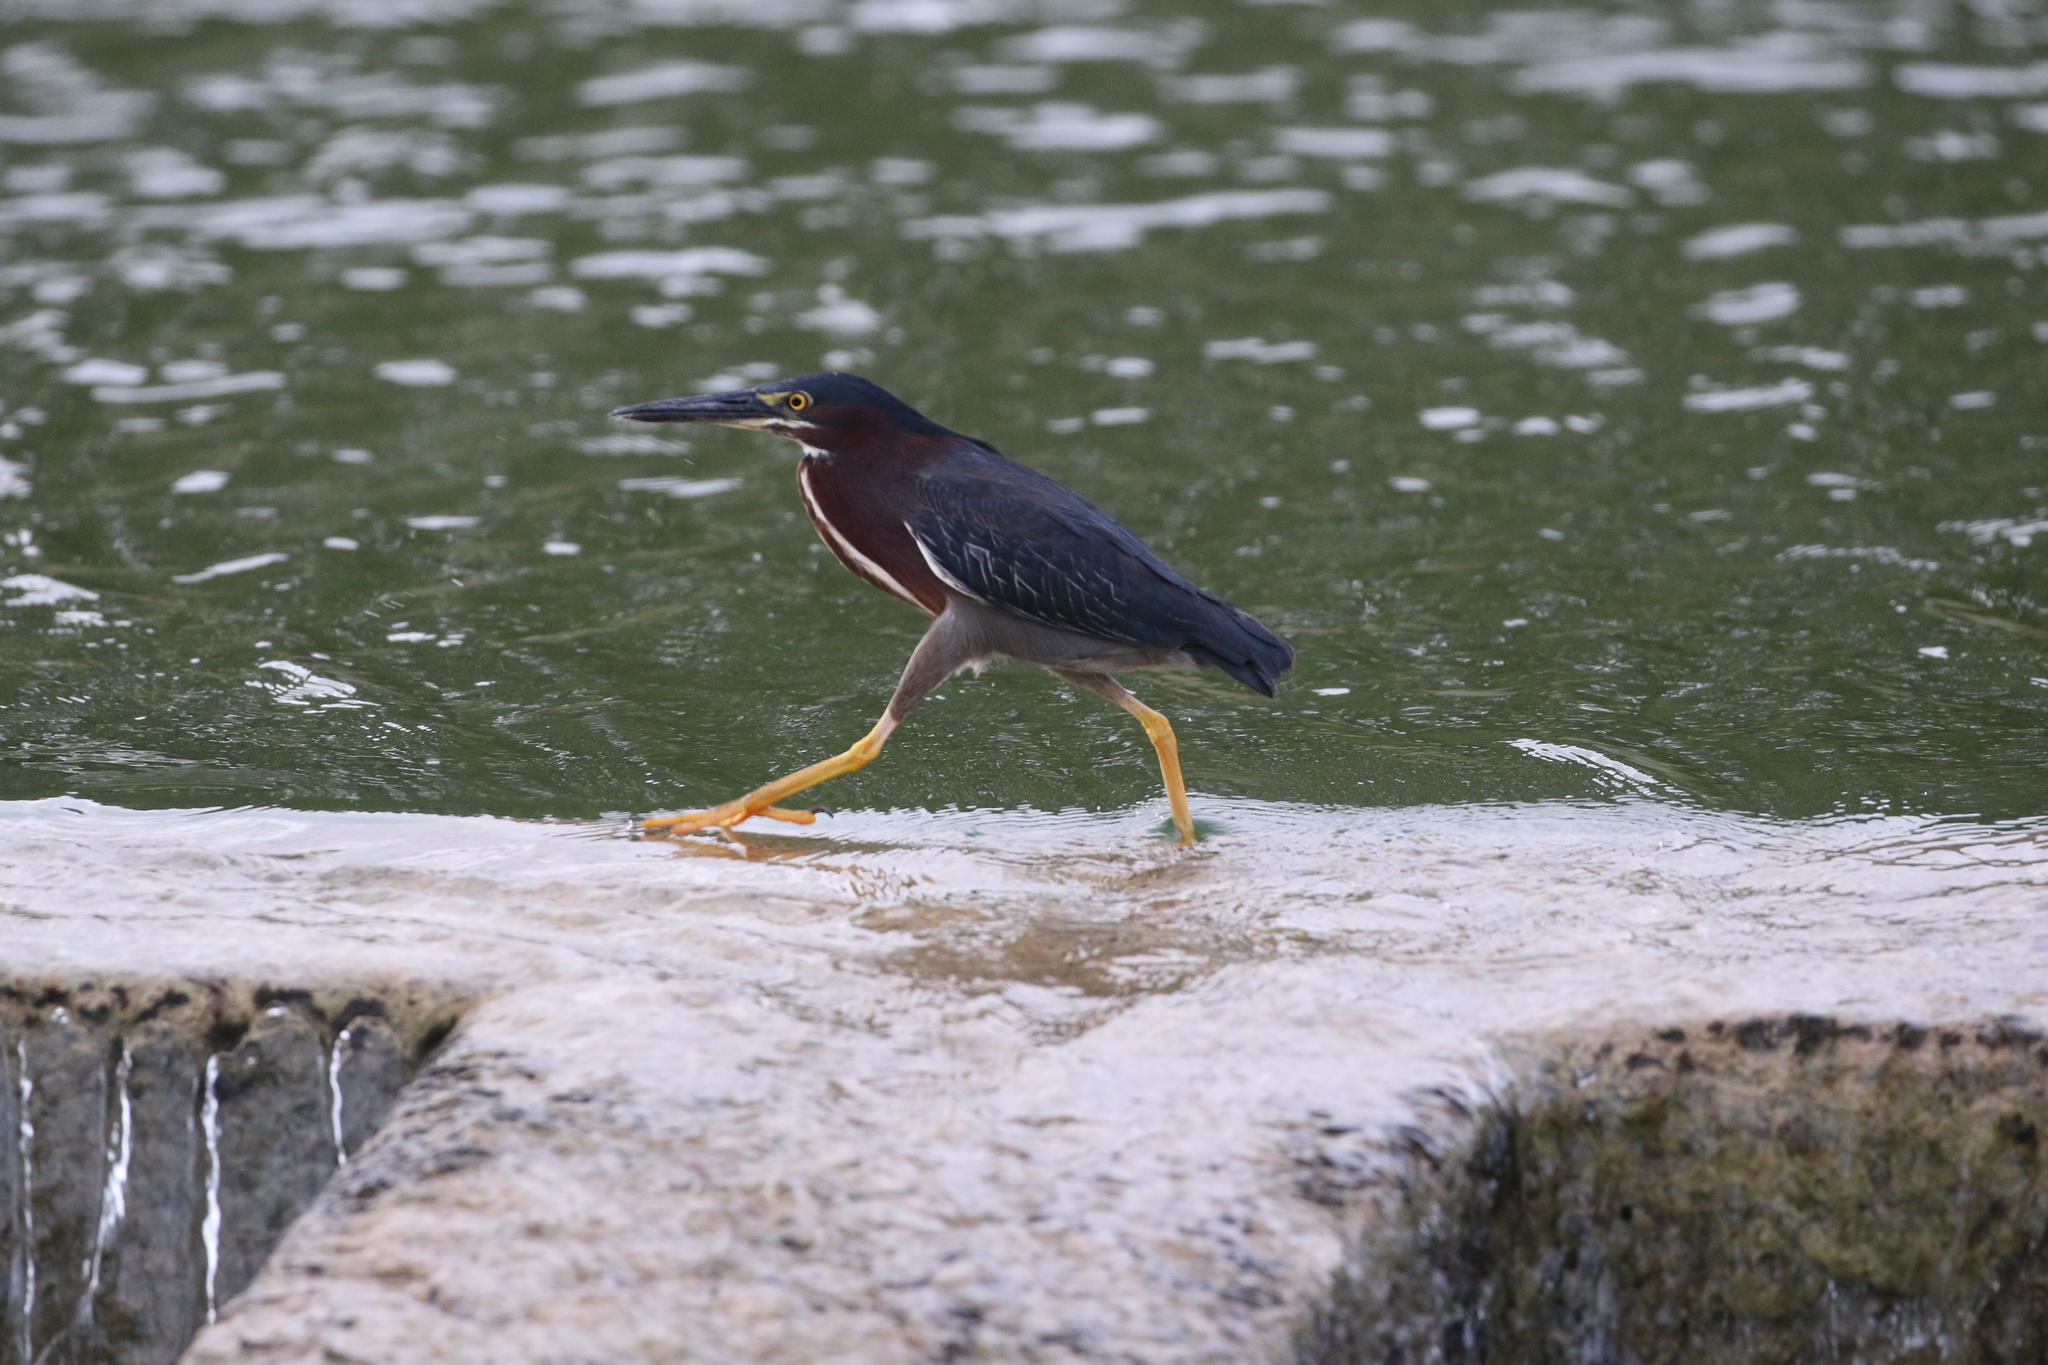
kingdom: Animalia
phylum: Chordata
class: Aves
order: Pelecaniformes
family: Ardeidae
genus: Butorides
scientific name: Butorides virescens
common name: Green heron
